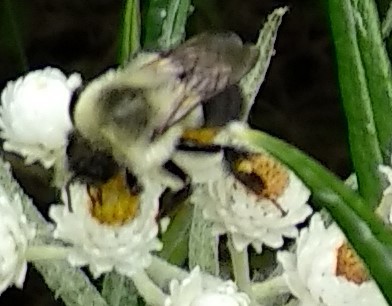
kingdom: Animalia
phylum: Arthropoda
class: Insecta
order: Hymenoptera
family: Apidae
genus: Bombus
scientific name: Bombus impatiens
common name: Common eastern bumble bee
